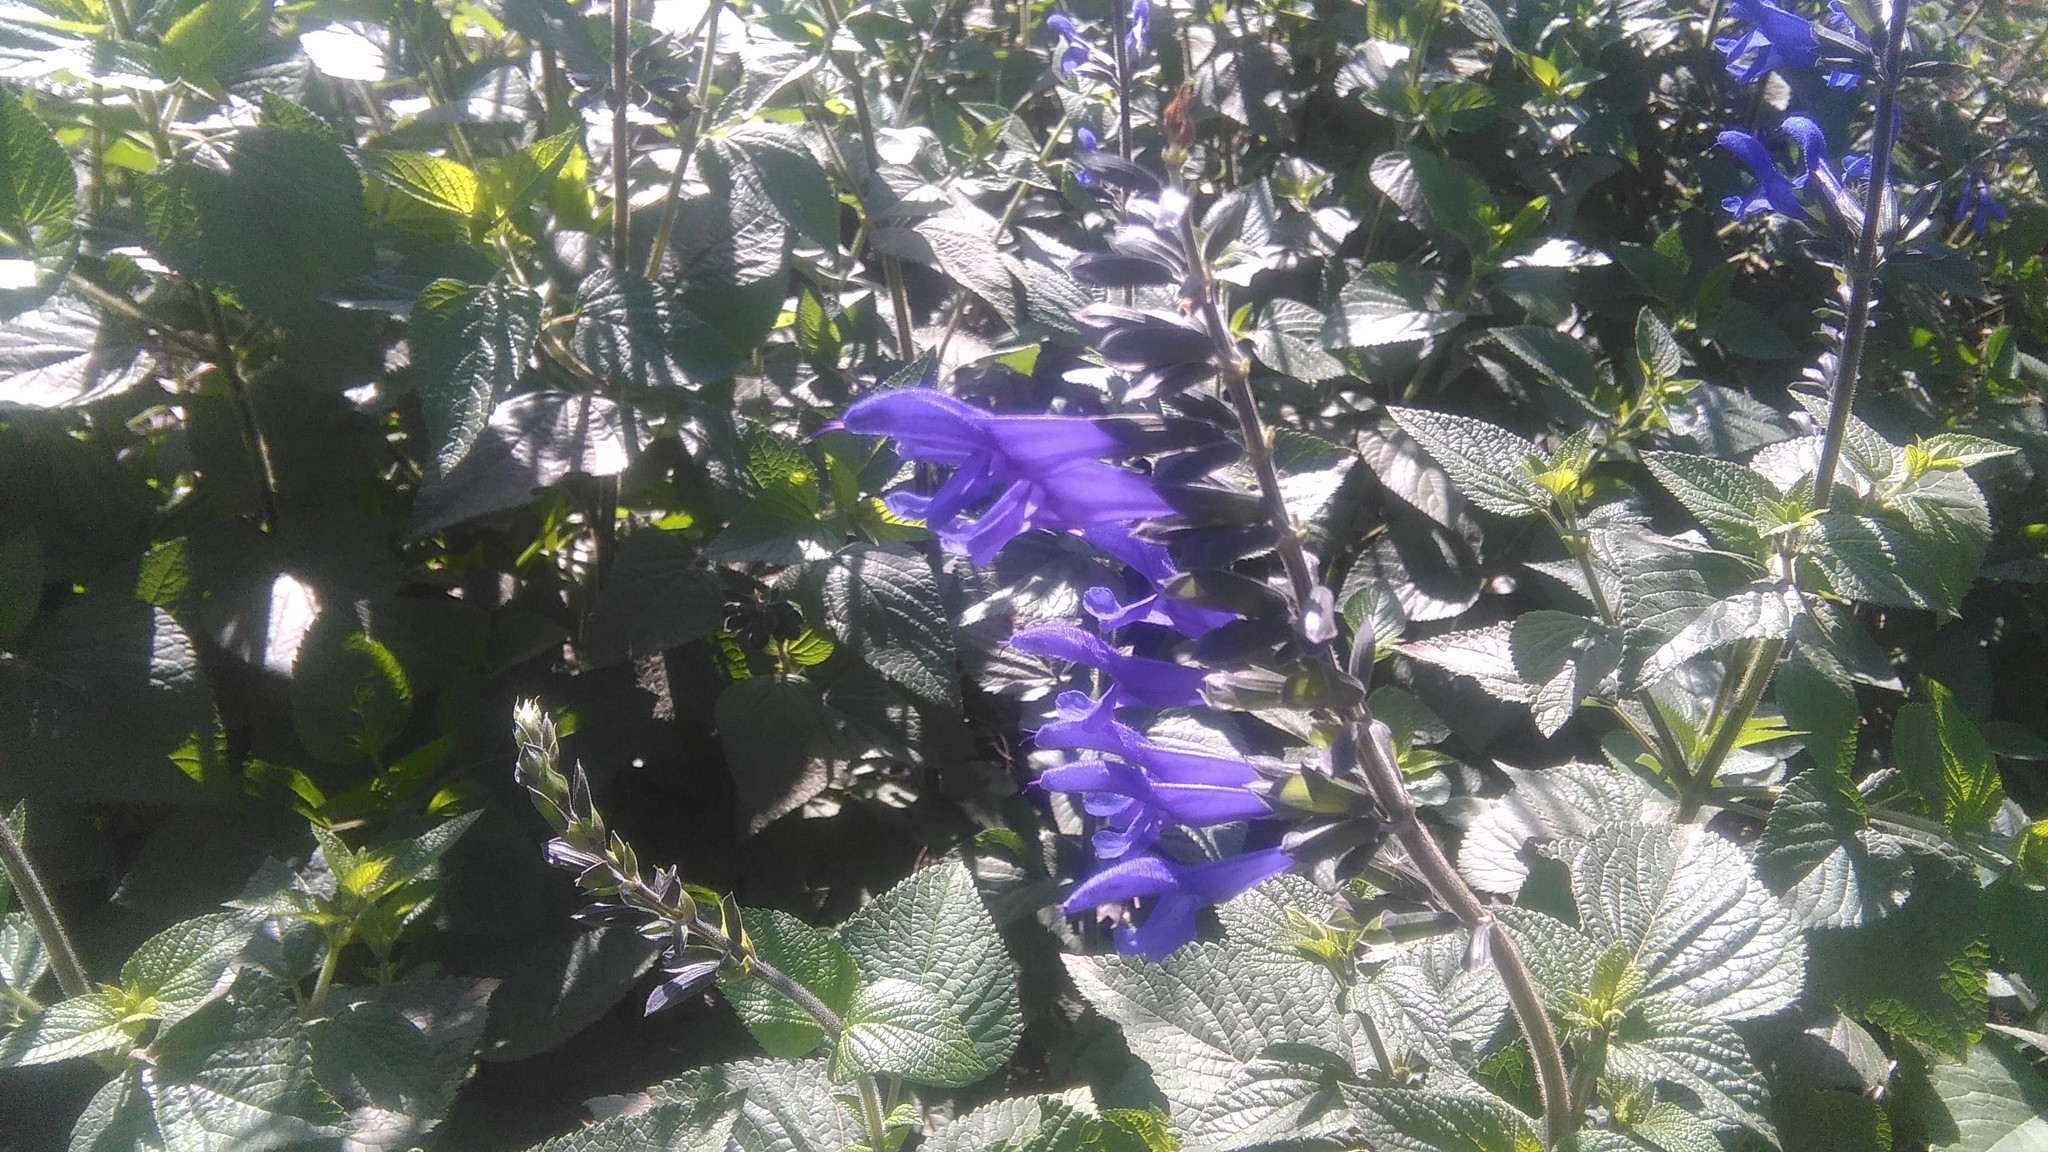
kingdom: Plantae
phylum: Tracheophyta
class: Magnoliopsida
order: Lamiales
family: Lamiaceae
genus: Salvia
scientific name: Salvia guaranitica
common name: Anise-scented sage
